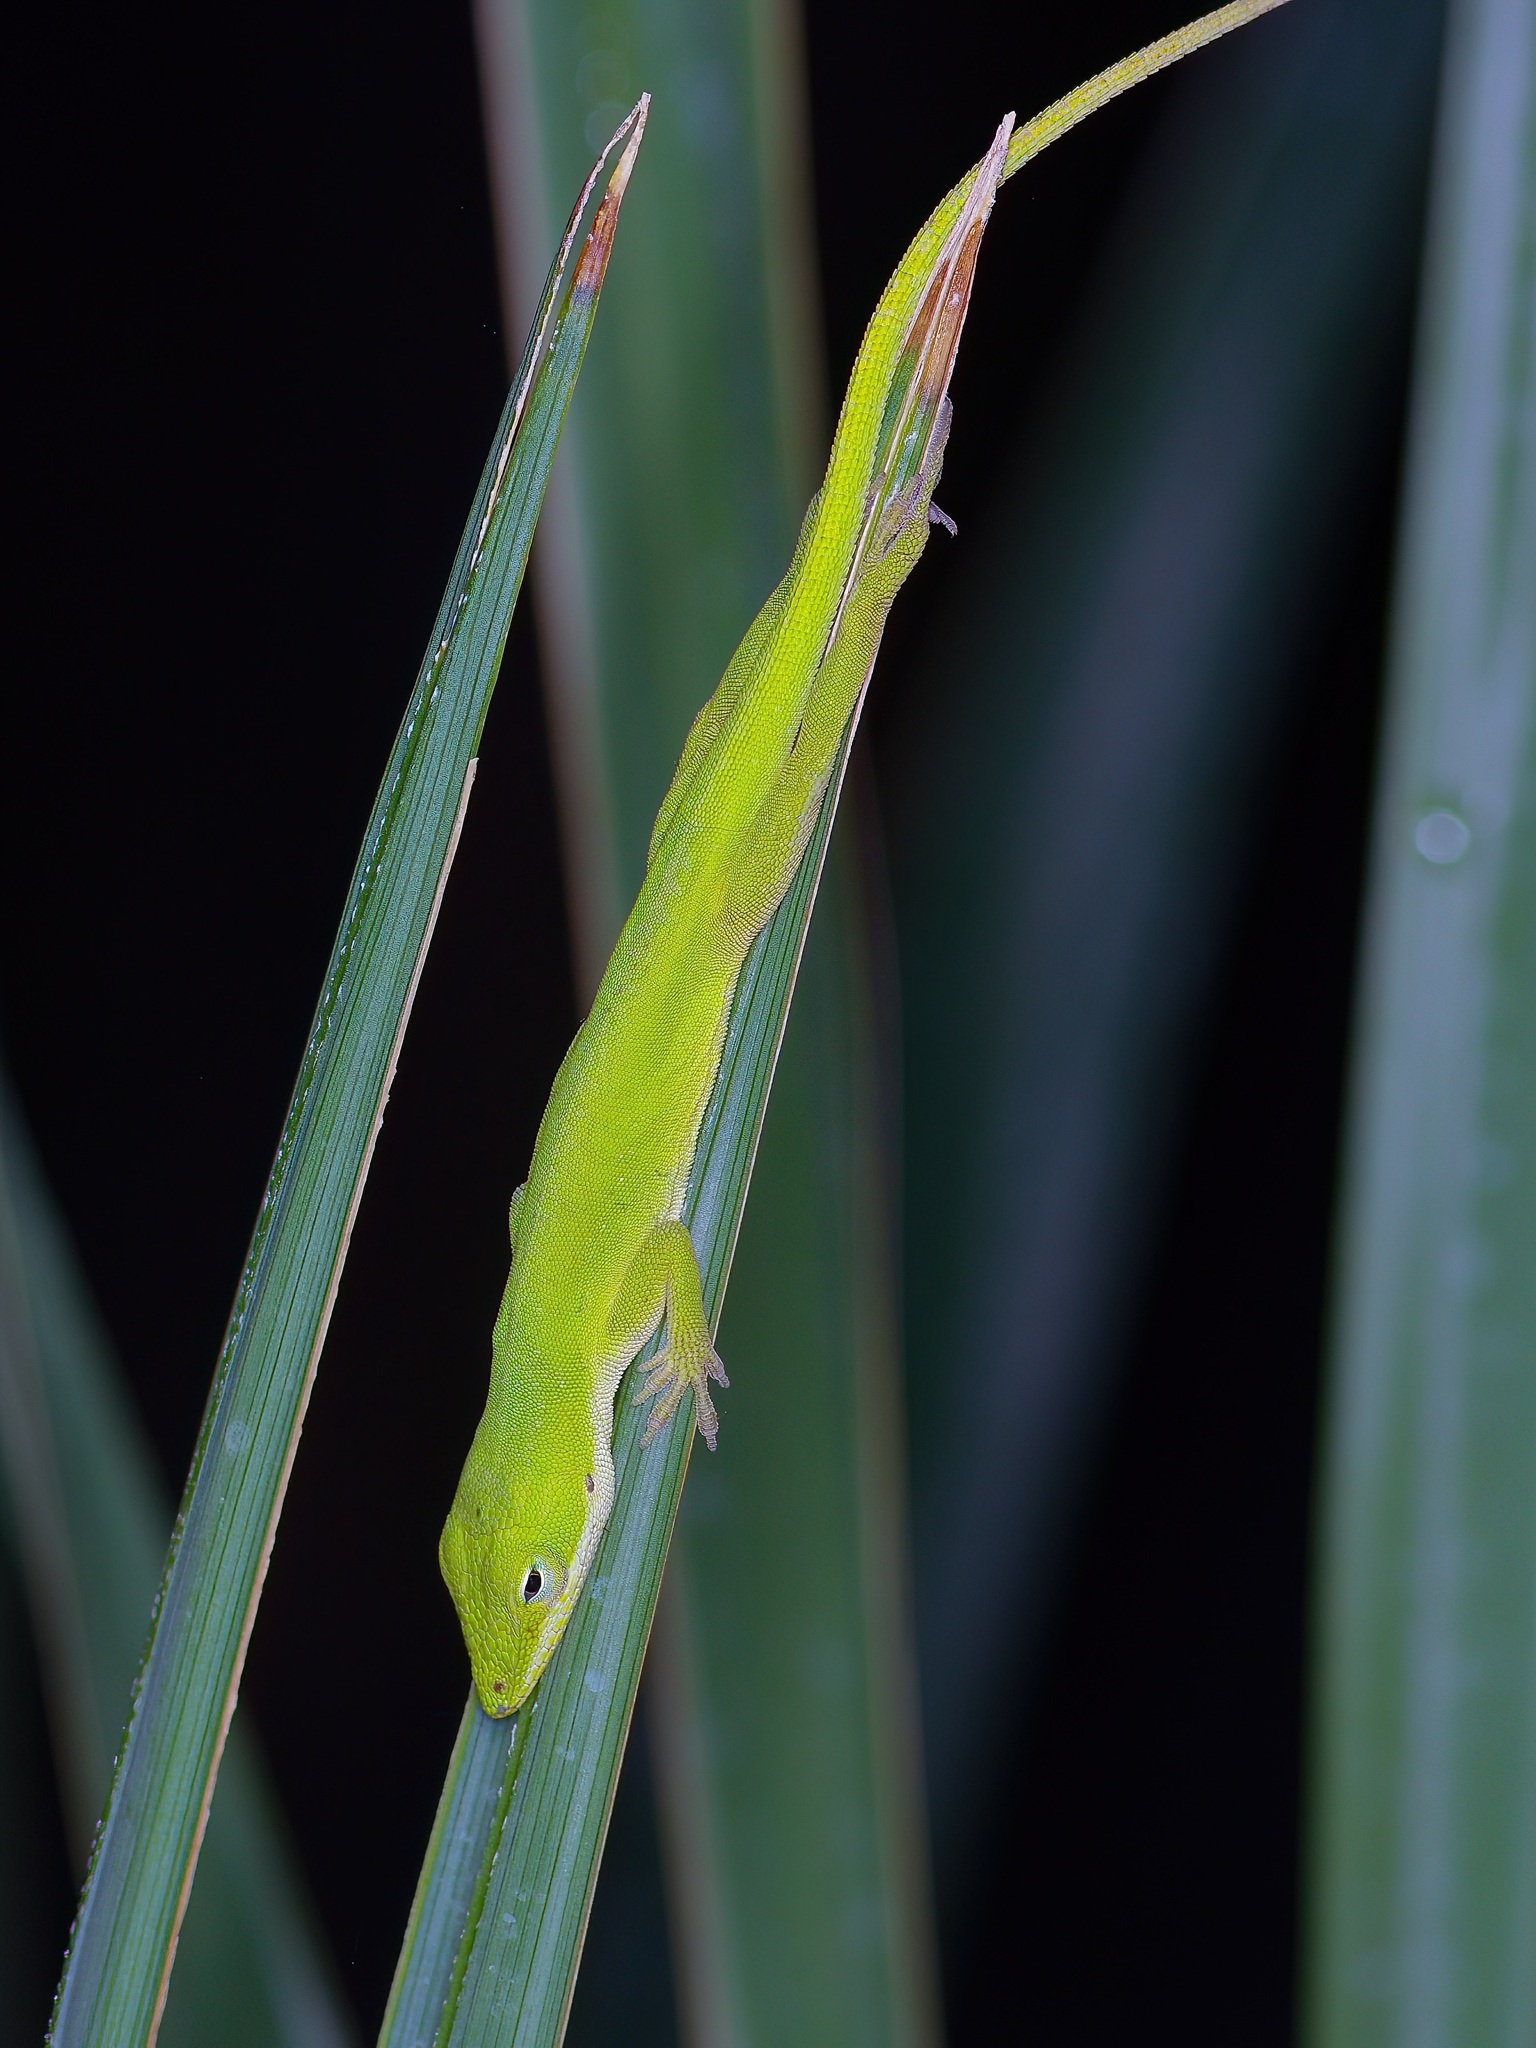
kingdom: Animalia
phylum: Chordata
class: Squamata
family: Dactyloidae
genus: Anolis
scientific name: Anolis carolinensis
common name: Green anole
